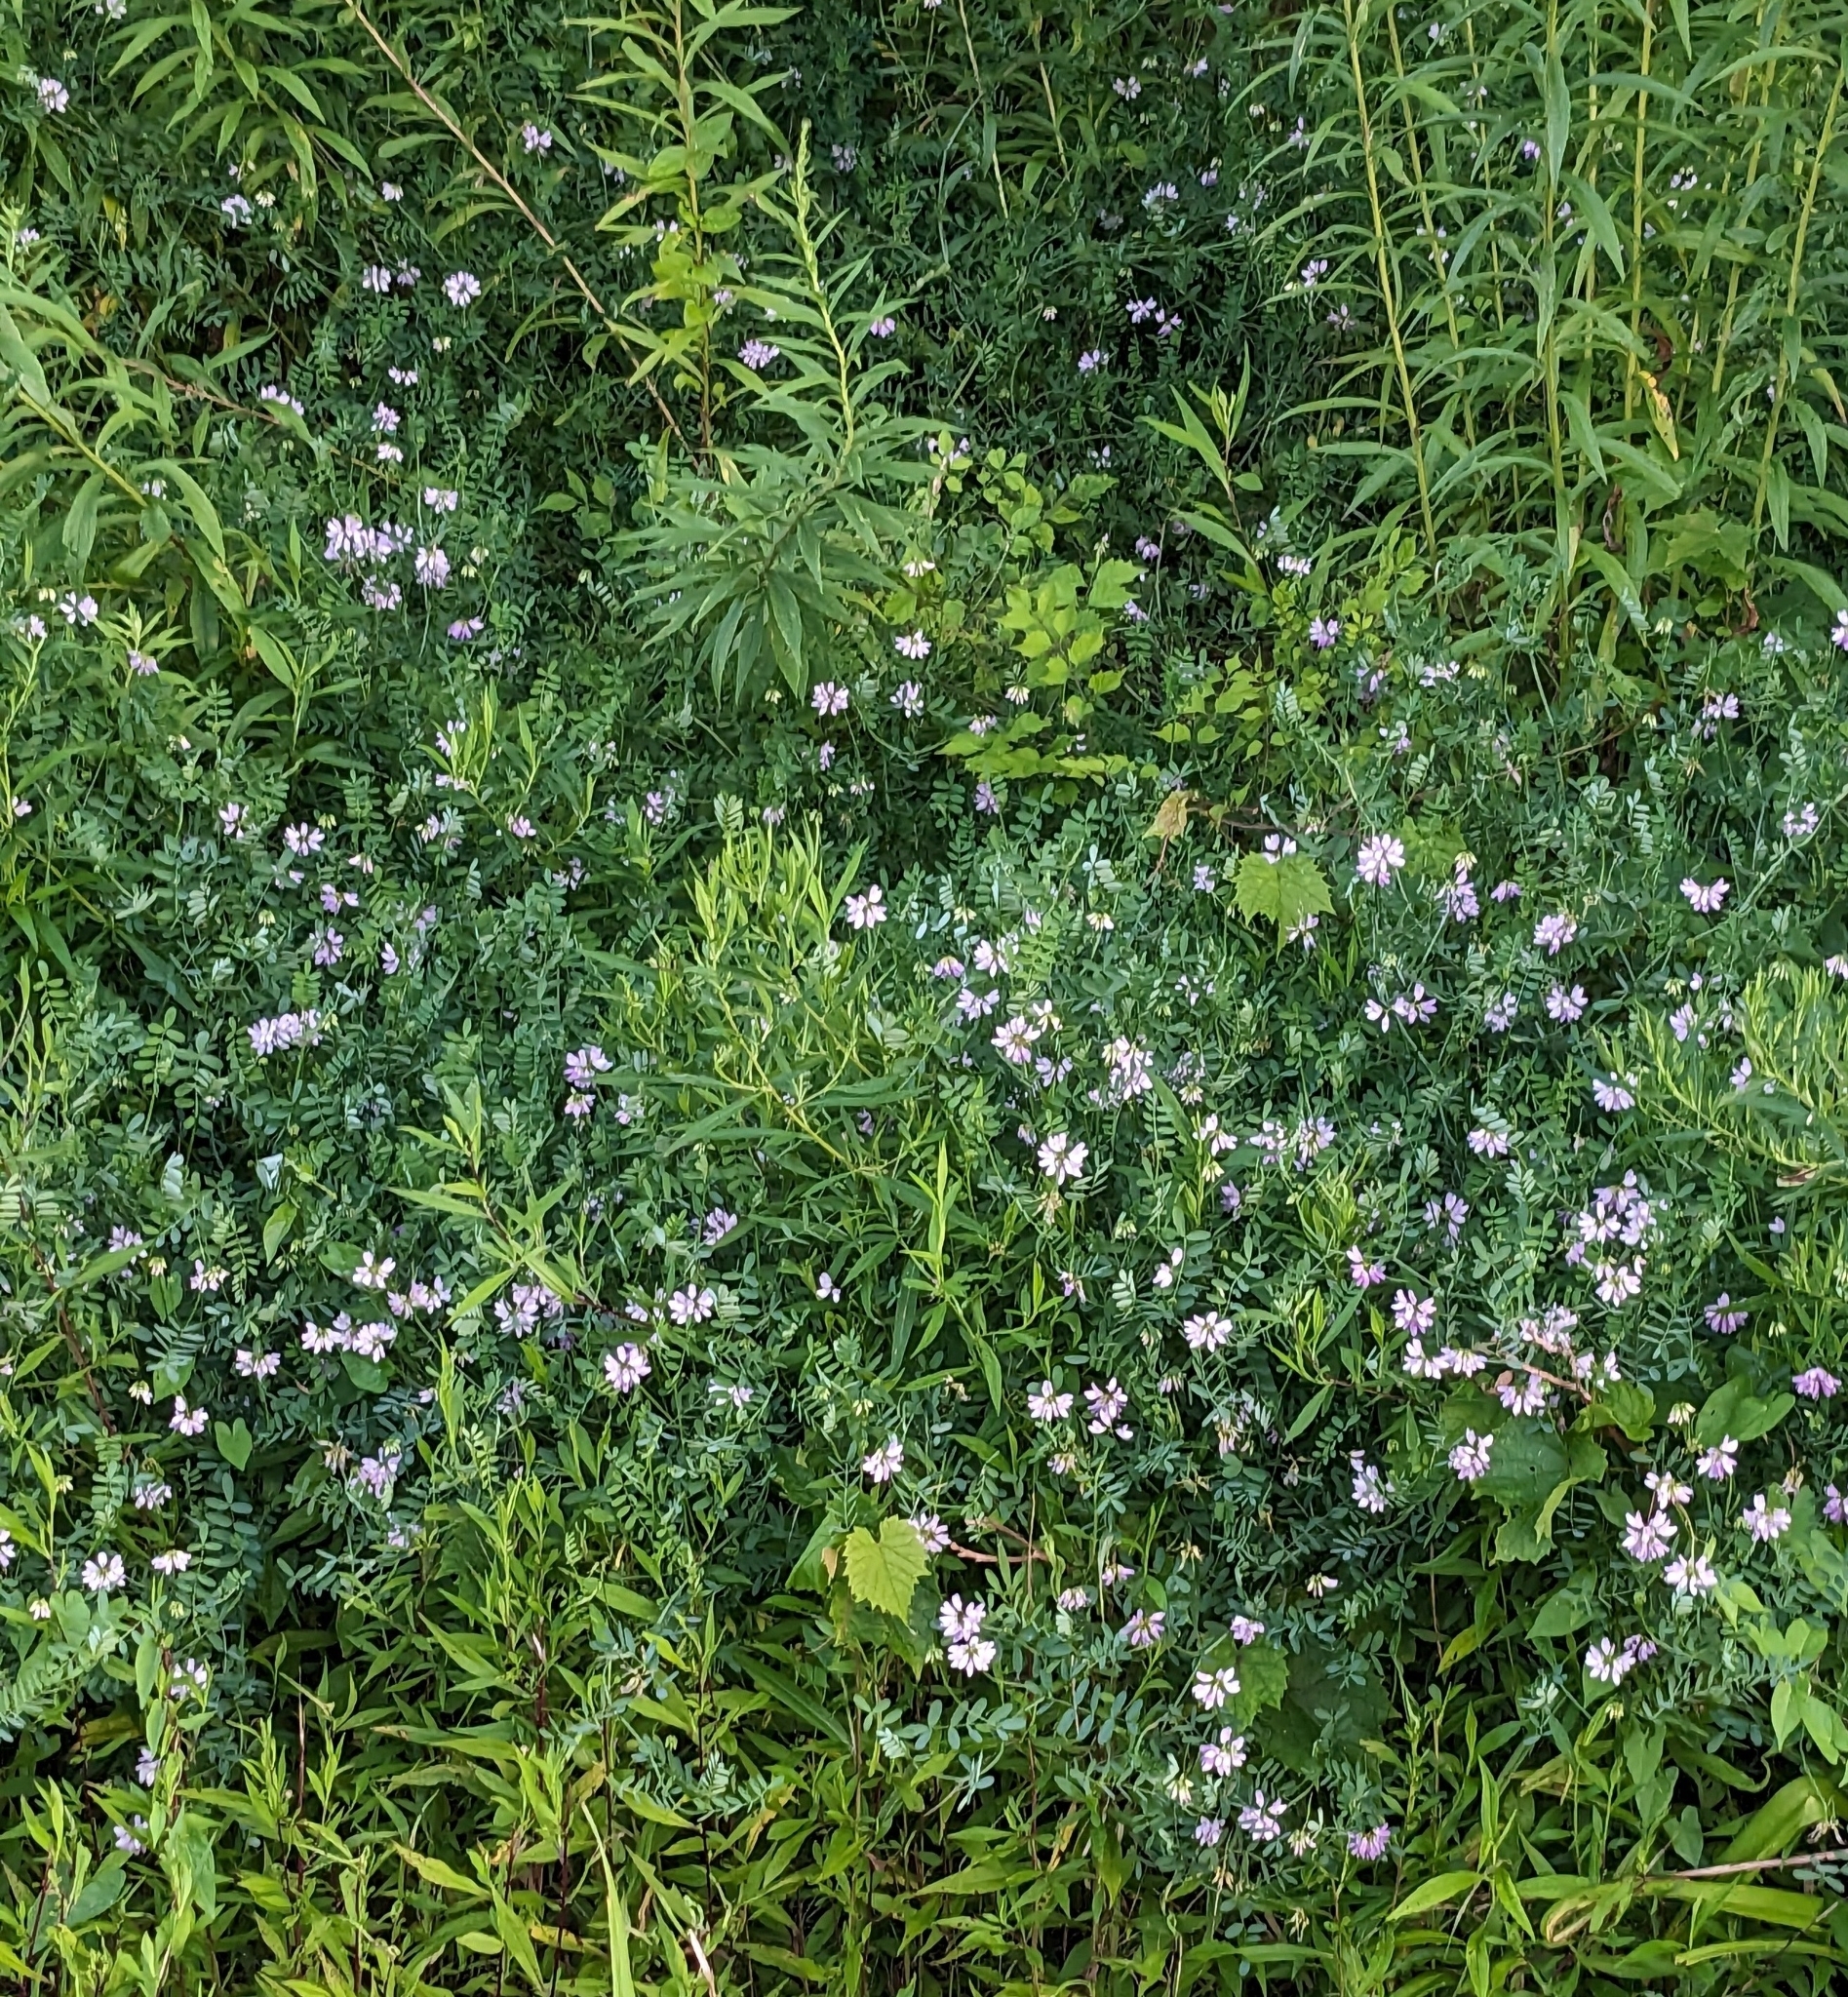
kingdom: Plantae
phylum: Tracheophyta
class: Magnoliopsida
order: Fabales
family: Fabaceae
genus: Coronilla
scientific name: Coronilla varia
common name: Crownvetch
